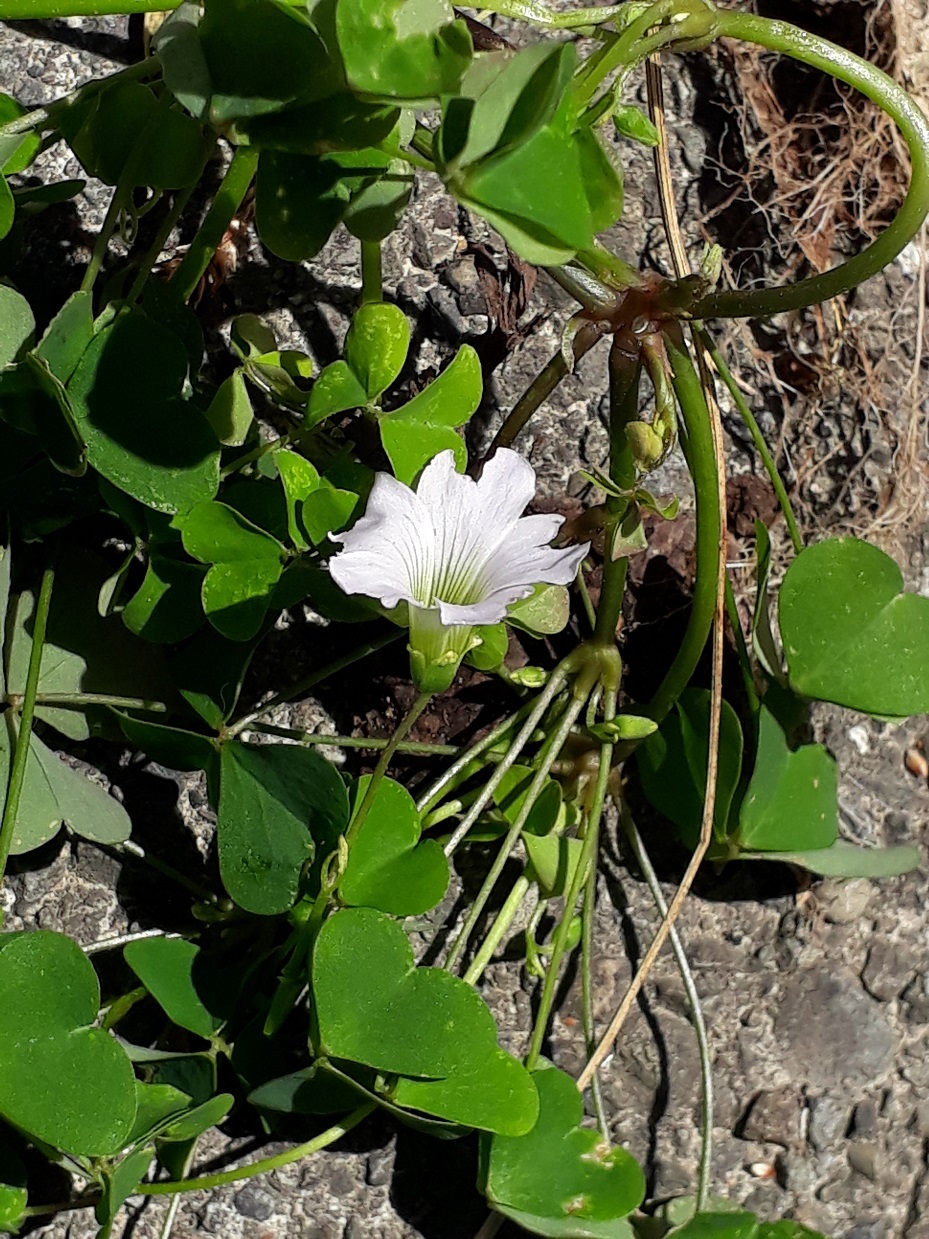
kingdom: Plantae
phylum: Tracheophyta
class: Magnoliopsida
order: Oxalidales
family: Oxalidaceae
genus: Oxalis
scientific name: Oxalis incarnata
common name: Pale pink-sorrel
